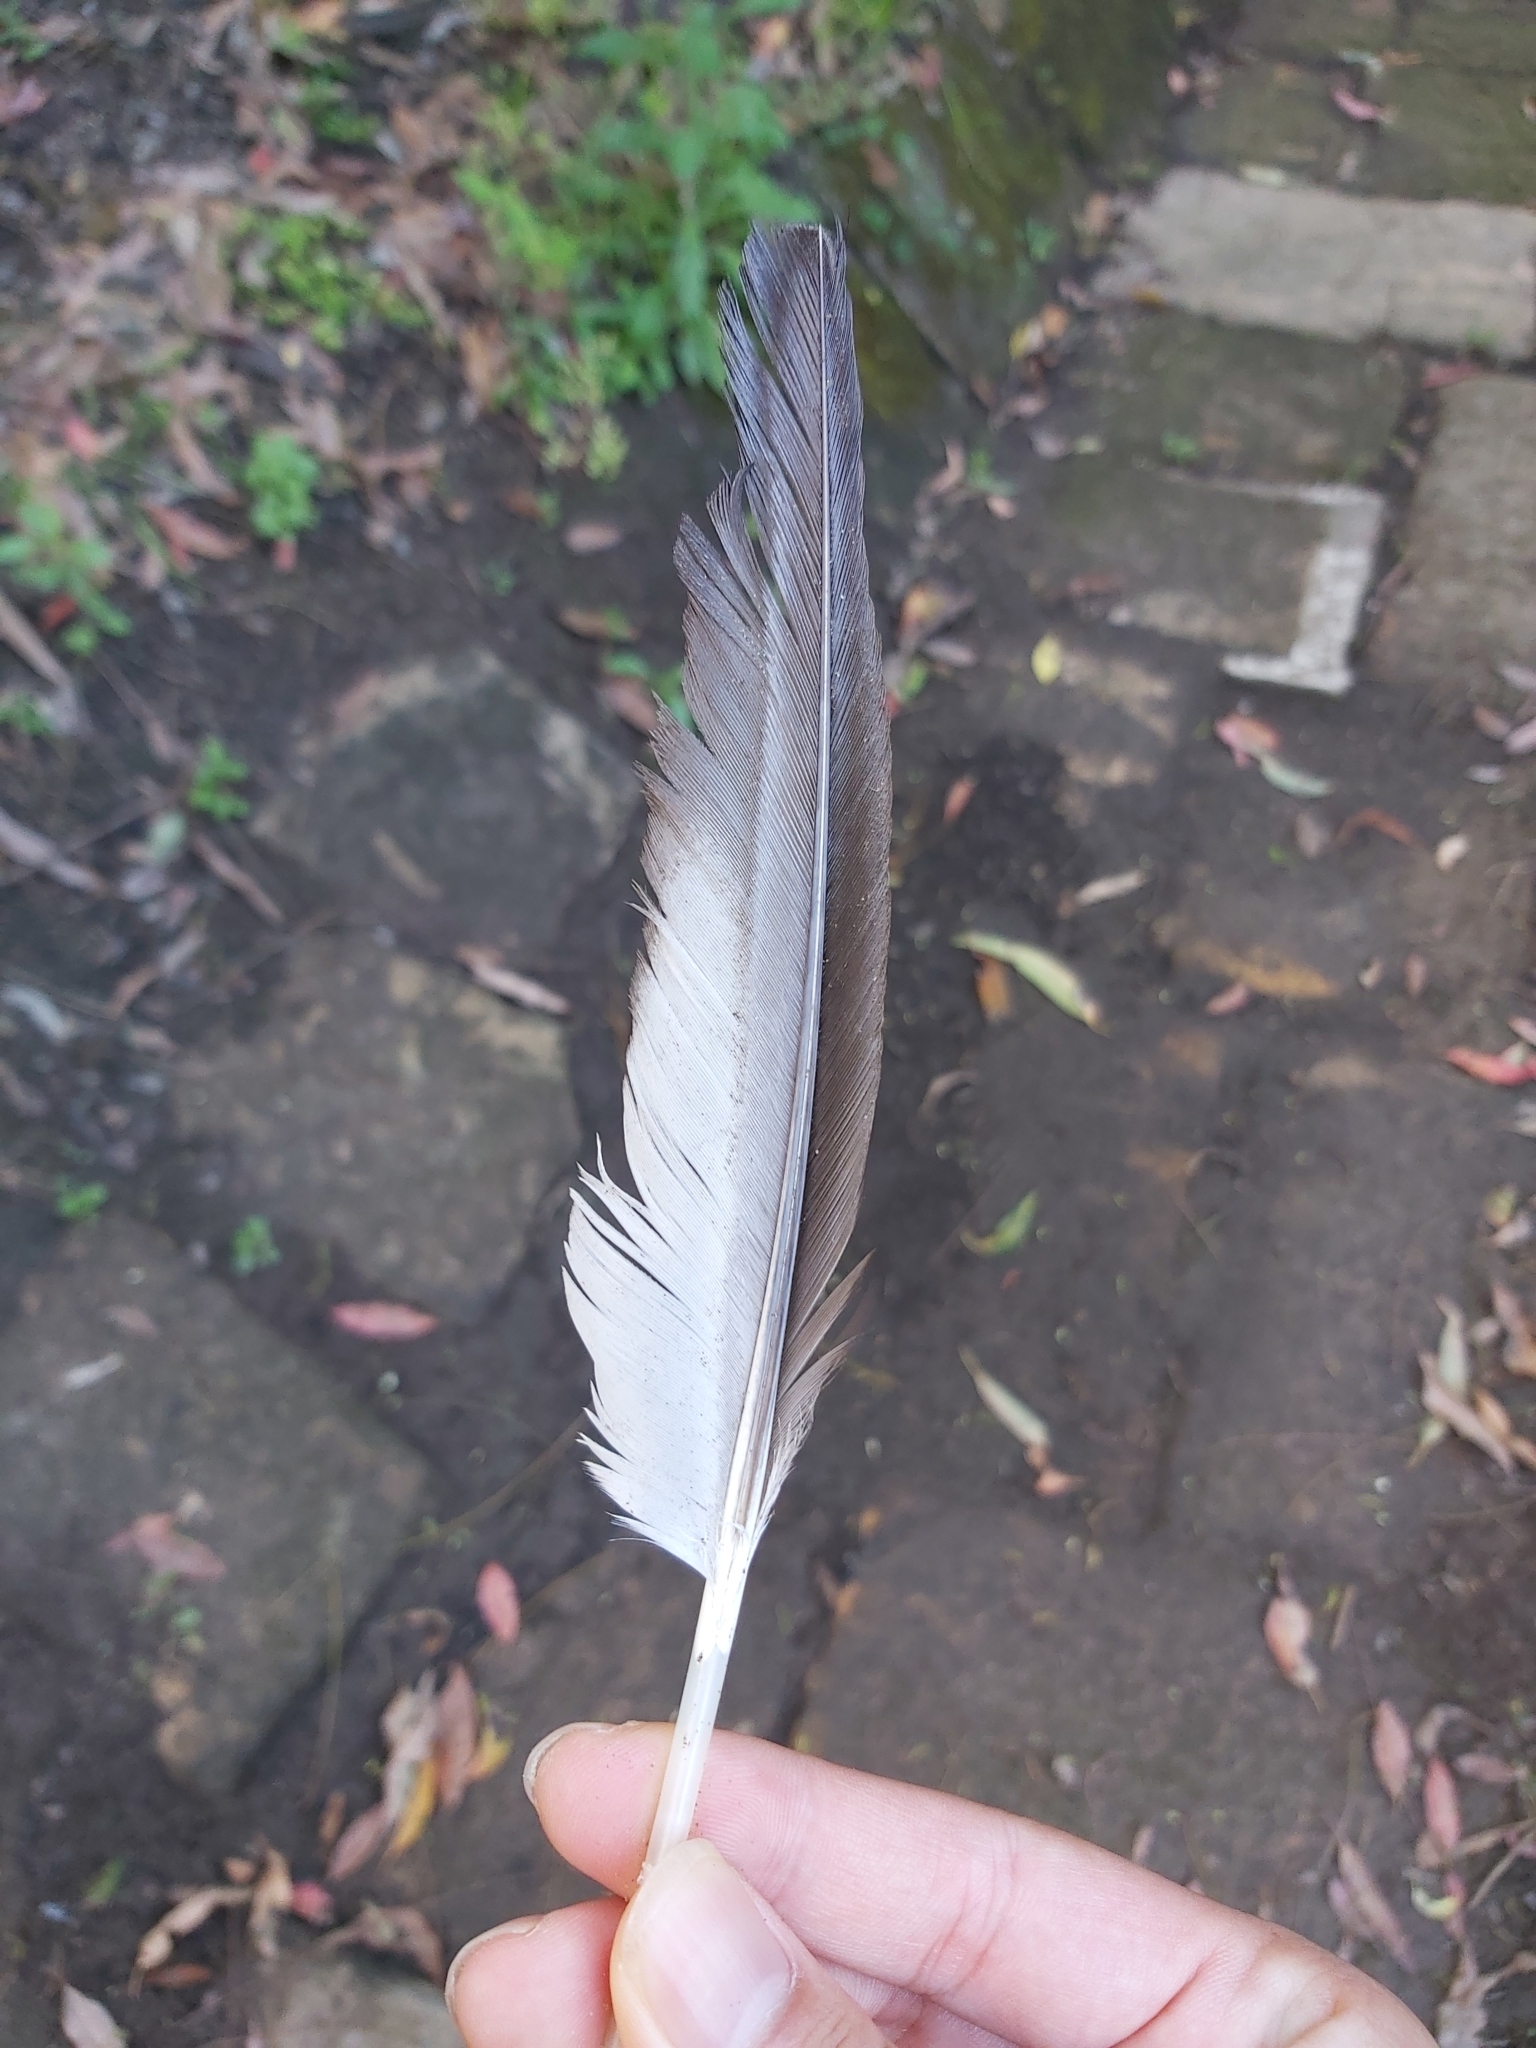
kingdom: Animalia
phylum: Chordata
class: Aves
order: Anseriformes
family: Anatidae
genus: Chenonetta
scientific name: Chenonetta jubata
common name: Maned duck
